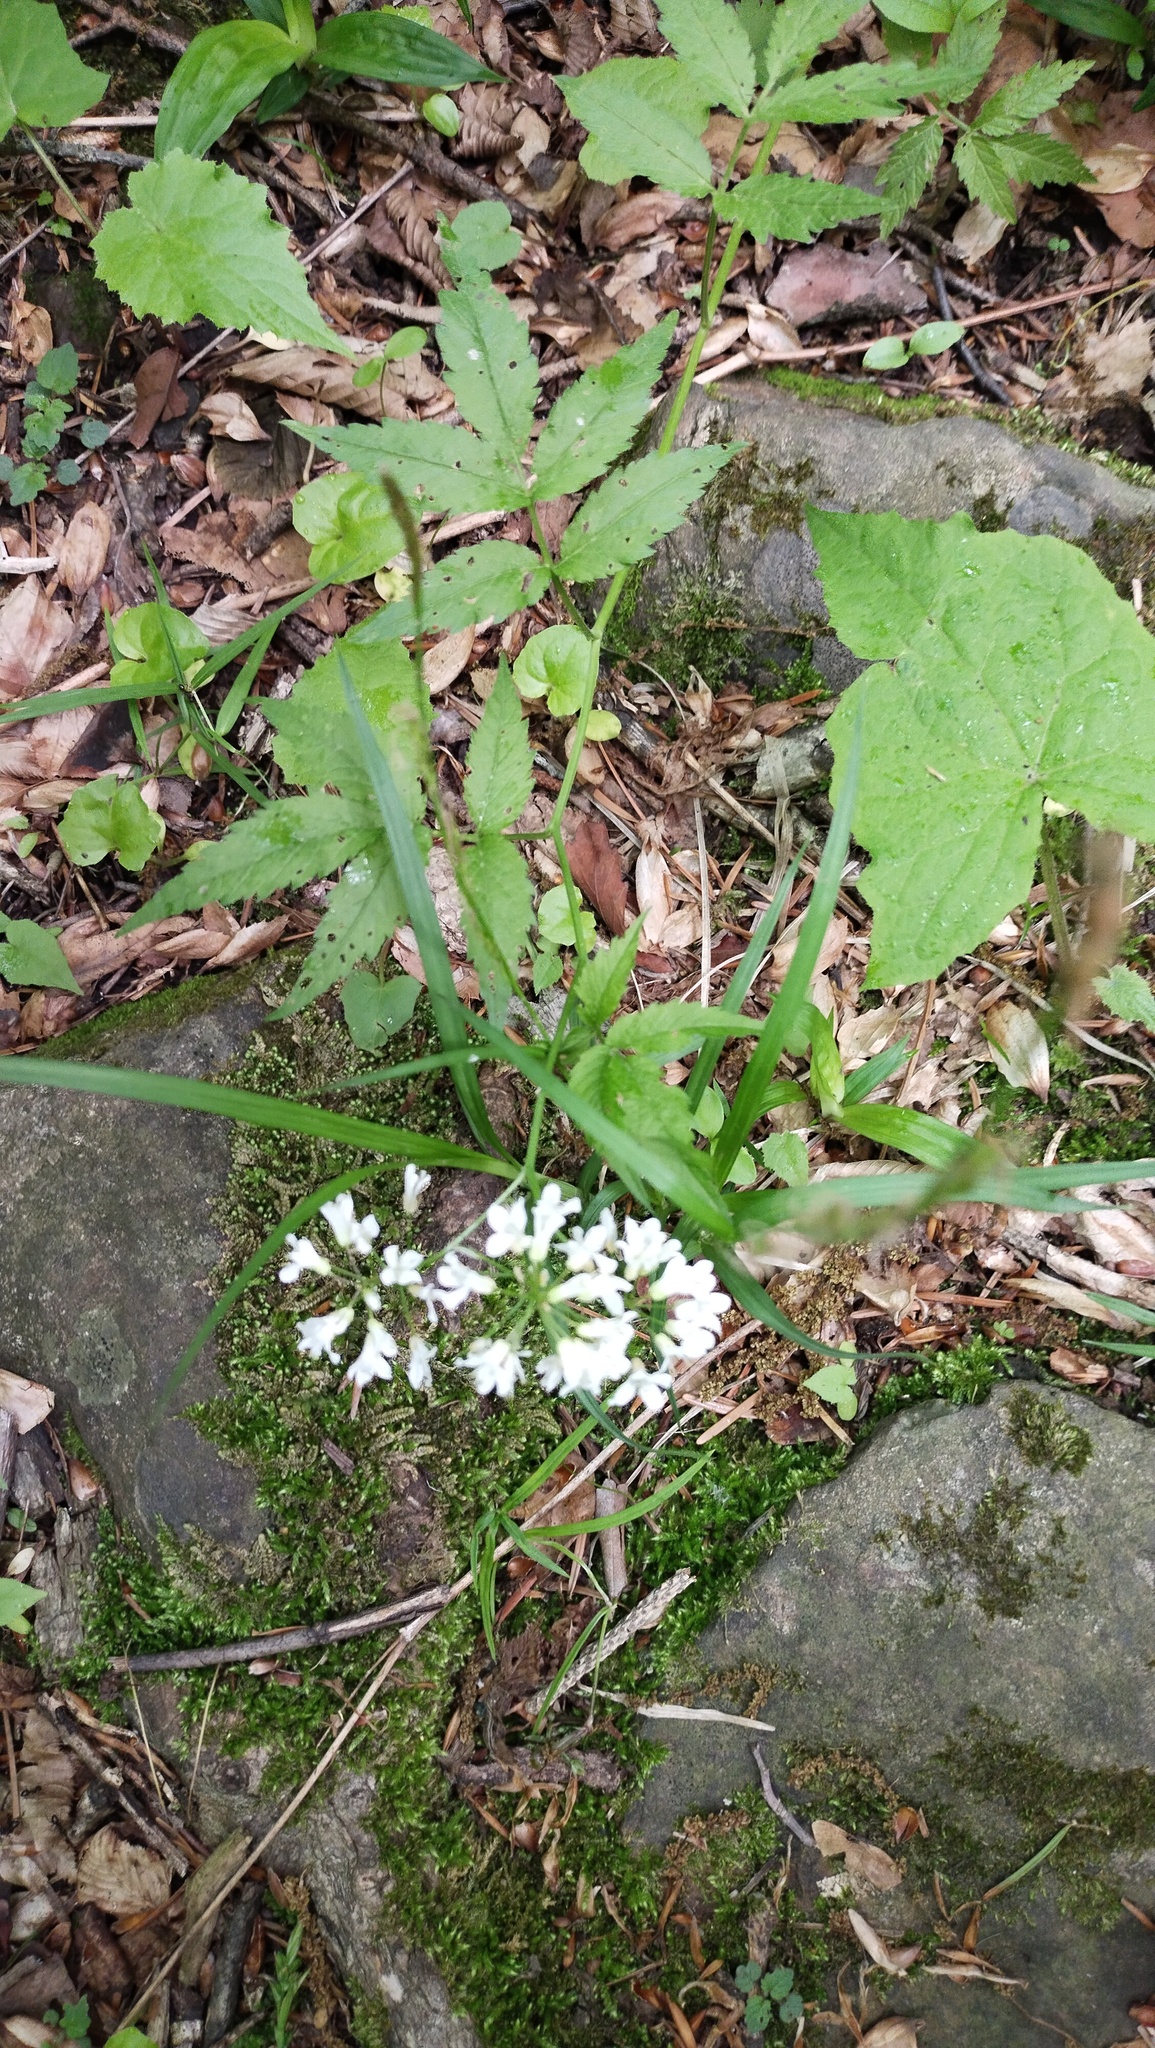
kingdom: Plantae
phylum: Tracheophyta
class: Magnoliopsida
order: Brassicales
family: Brassicaceae
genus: Cardamine
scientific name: Cardamine leucantha
